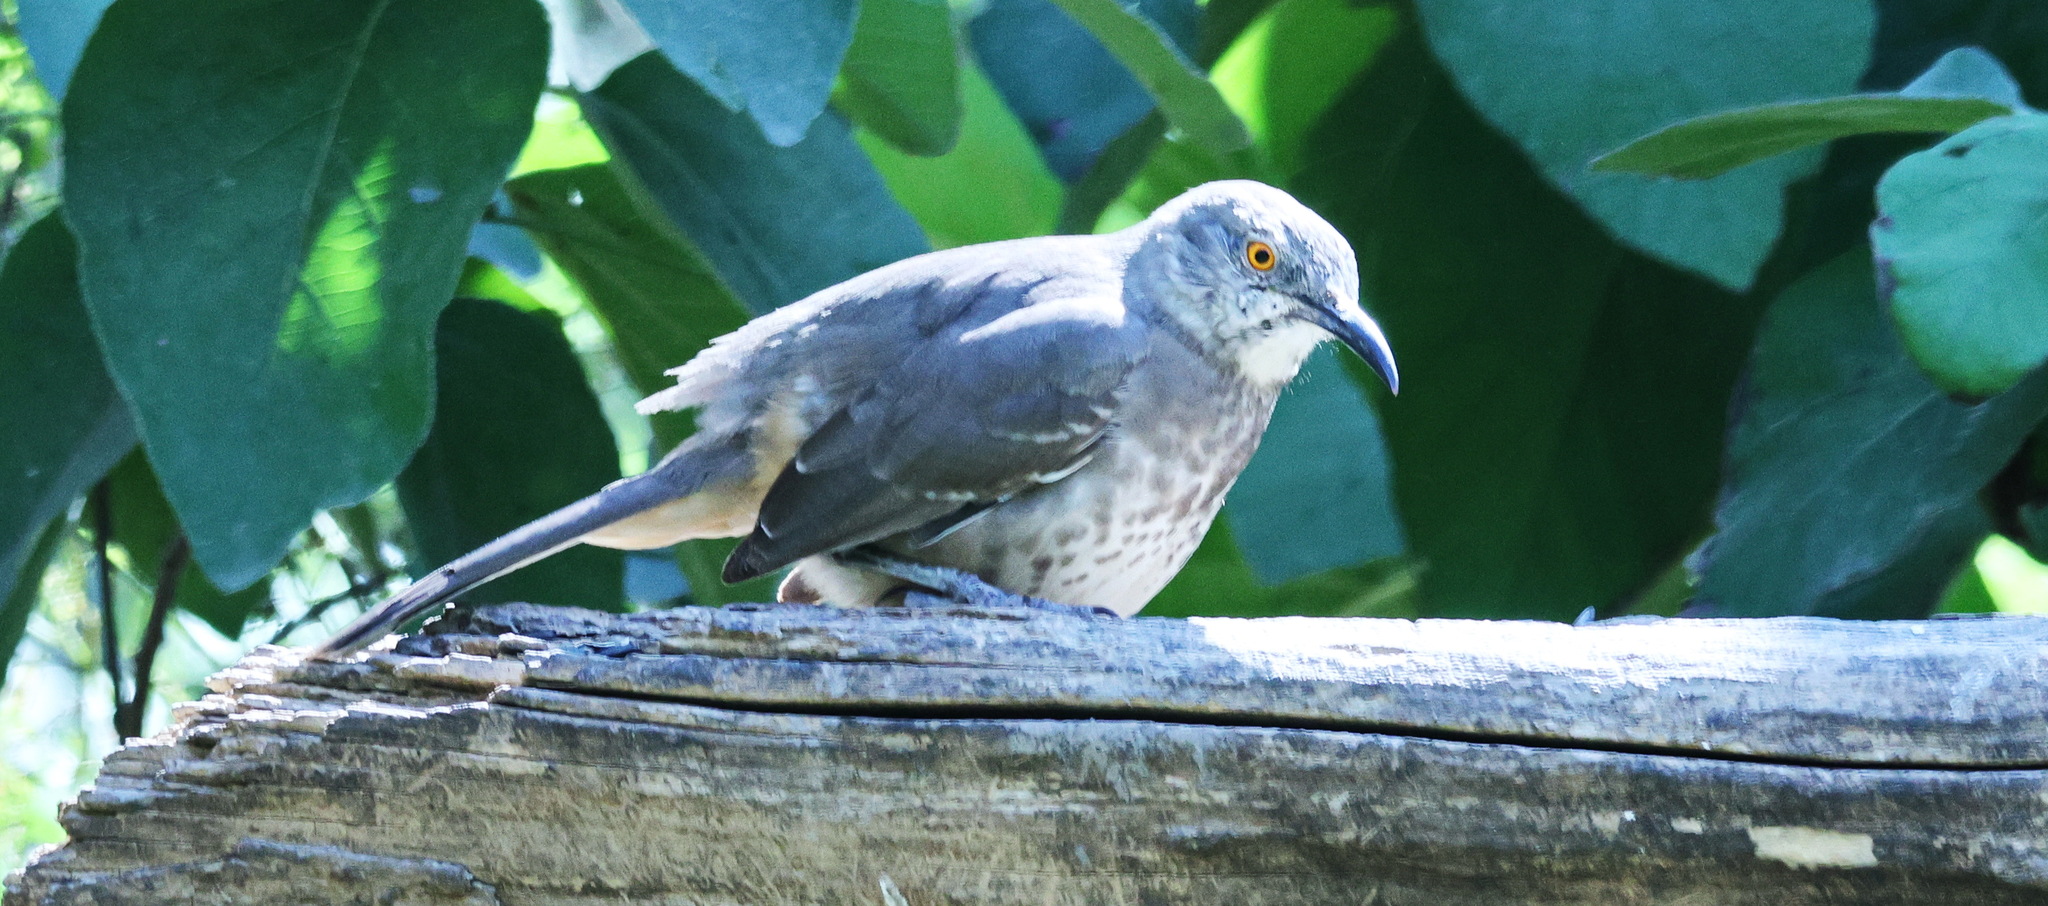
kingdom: Animalia
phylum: Chordata
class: Aves
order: Passeriformes
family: Mimidae
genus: Toxostoma
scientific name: Toxostoma curvirostre
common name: Curve-billed thrasher
